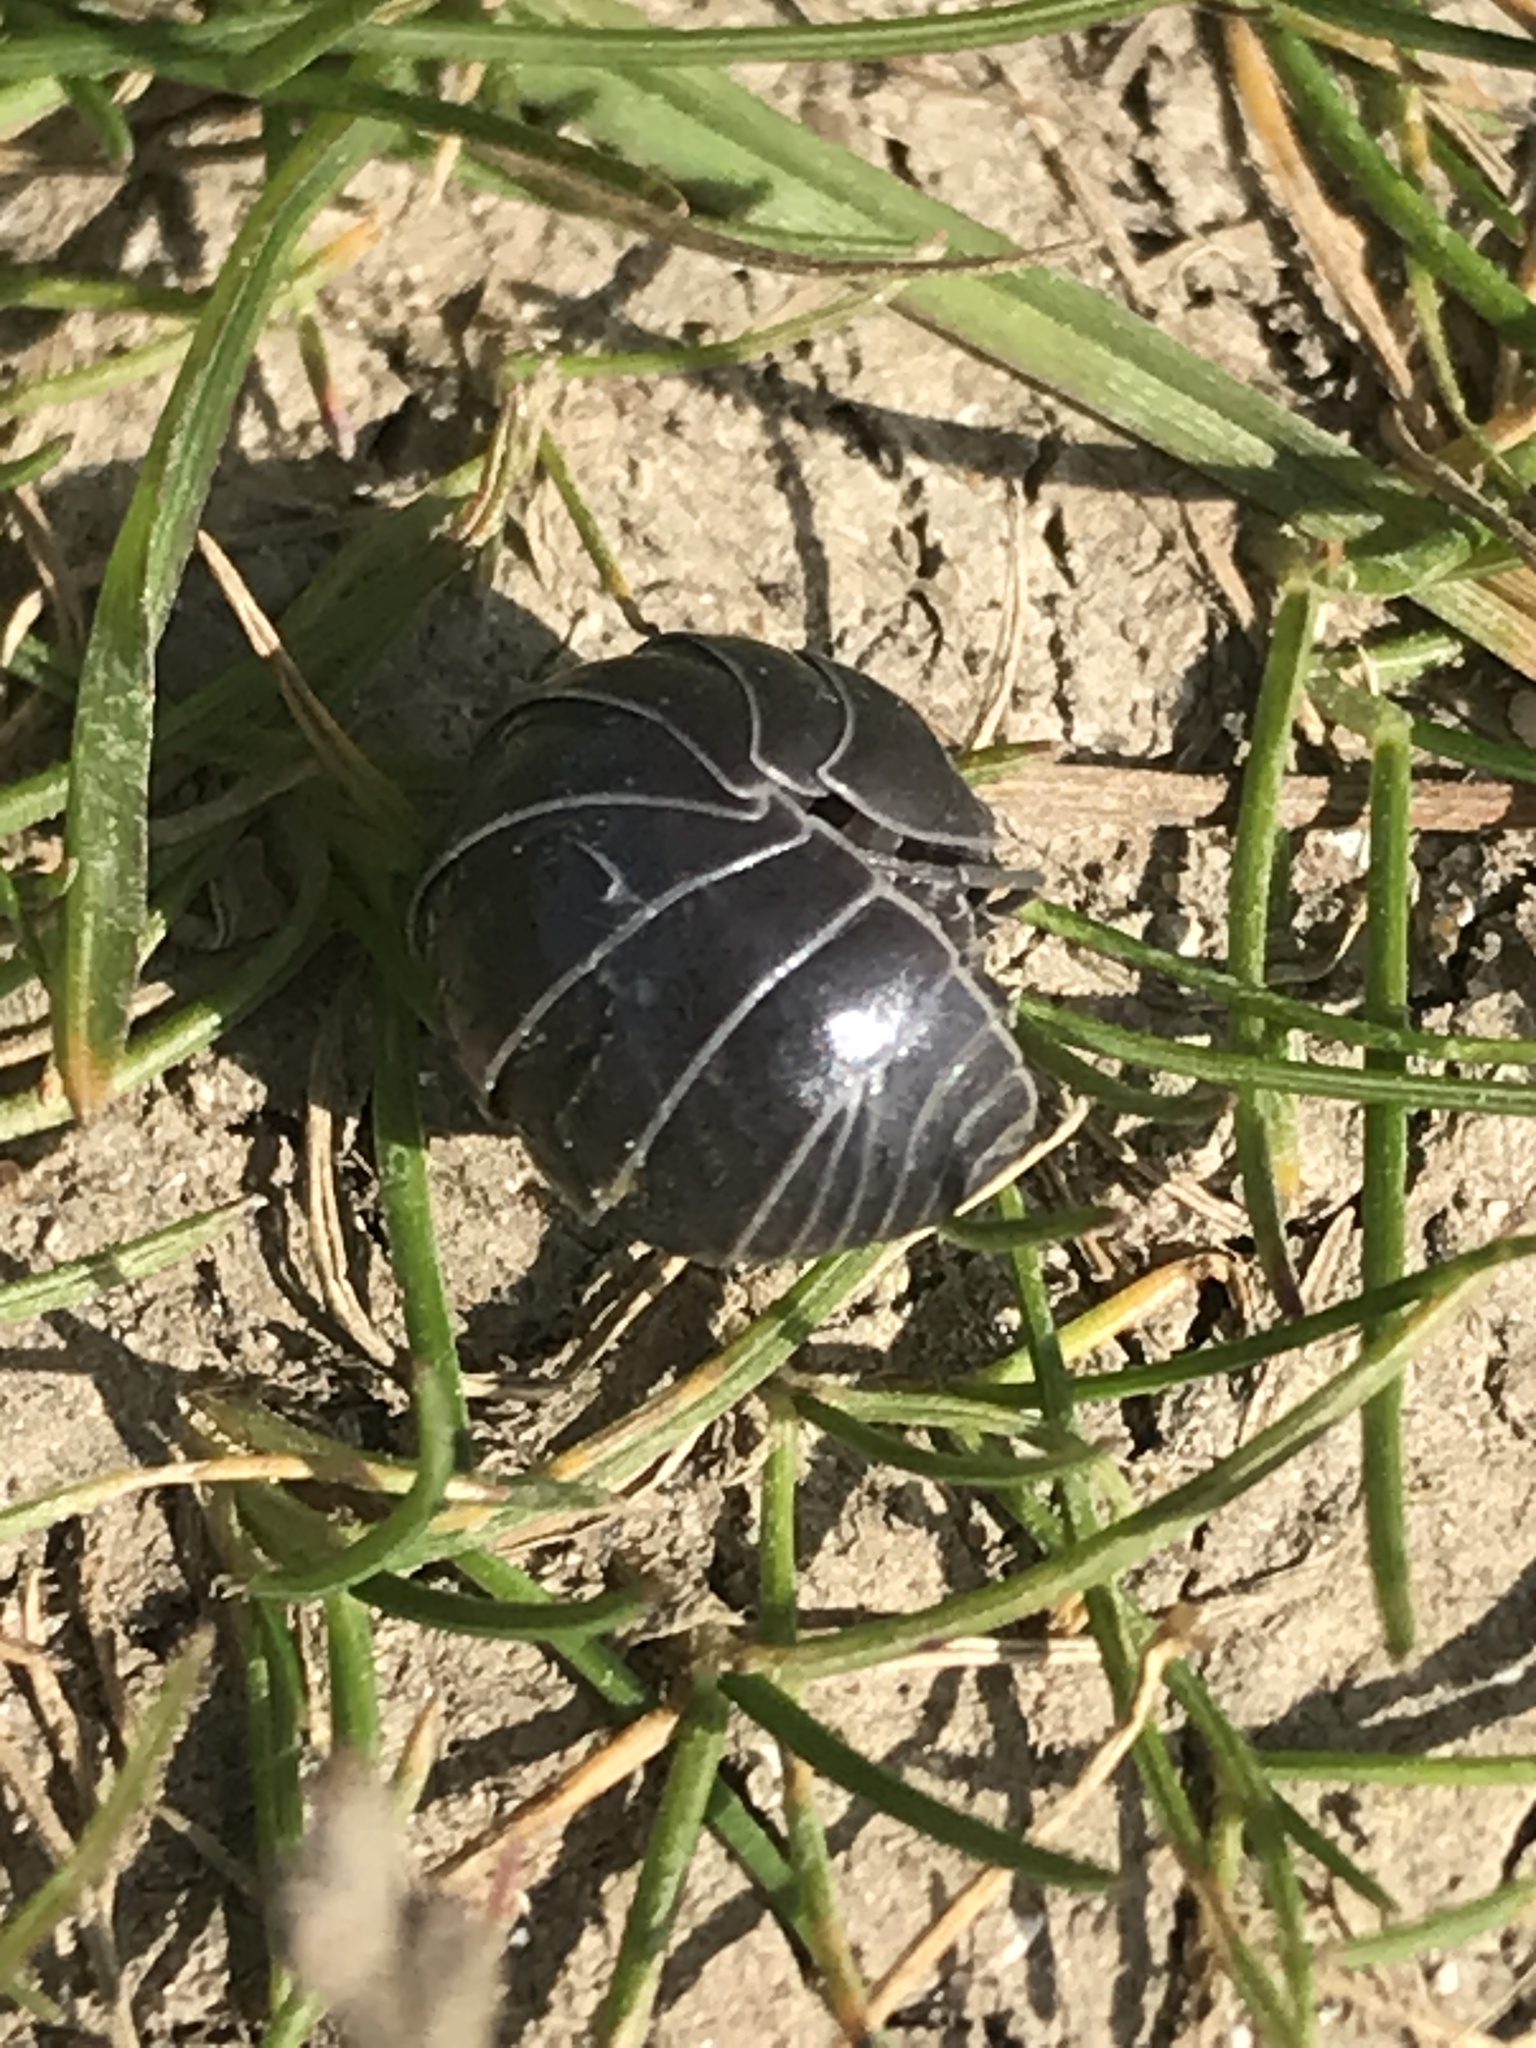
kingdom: Animalia
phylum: Arthropoda
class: Malacostraca
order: Isopoda
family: Armadillidiidae
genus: Armadillidium
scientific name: Armadillidium vulgare
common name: Common pill woodlouse
